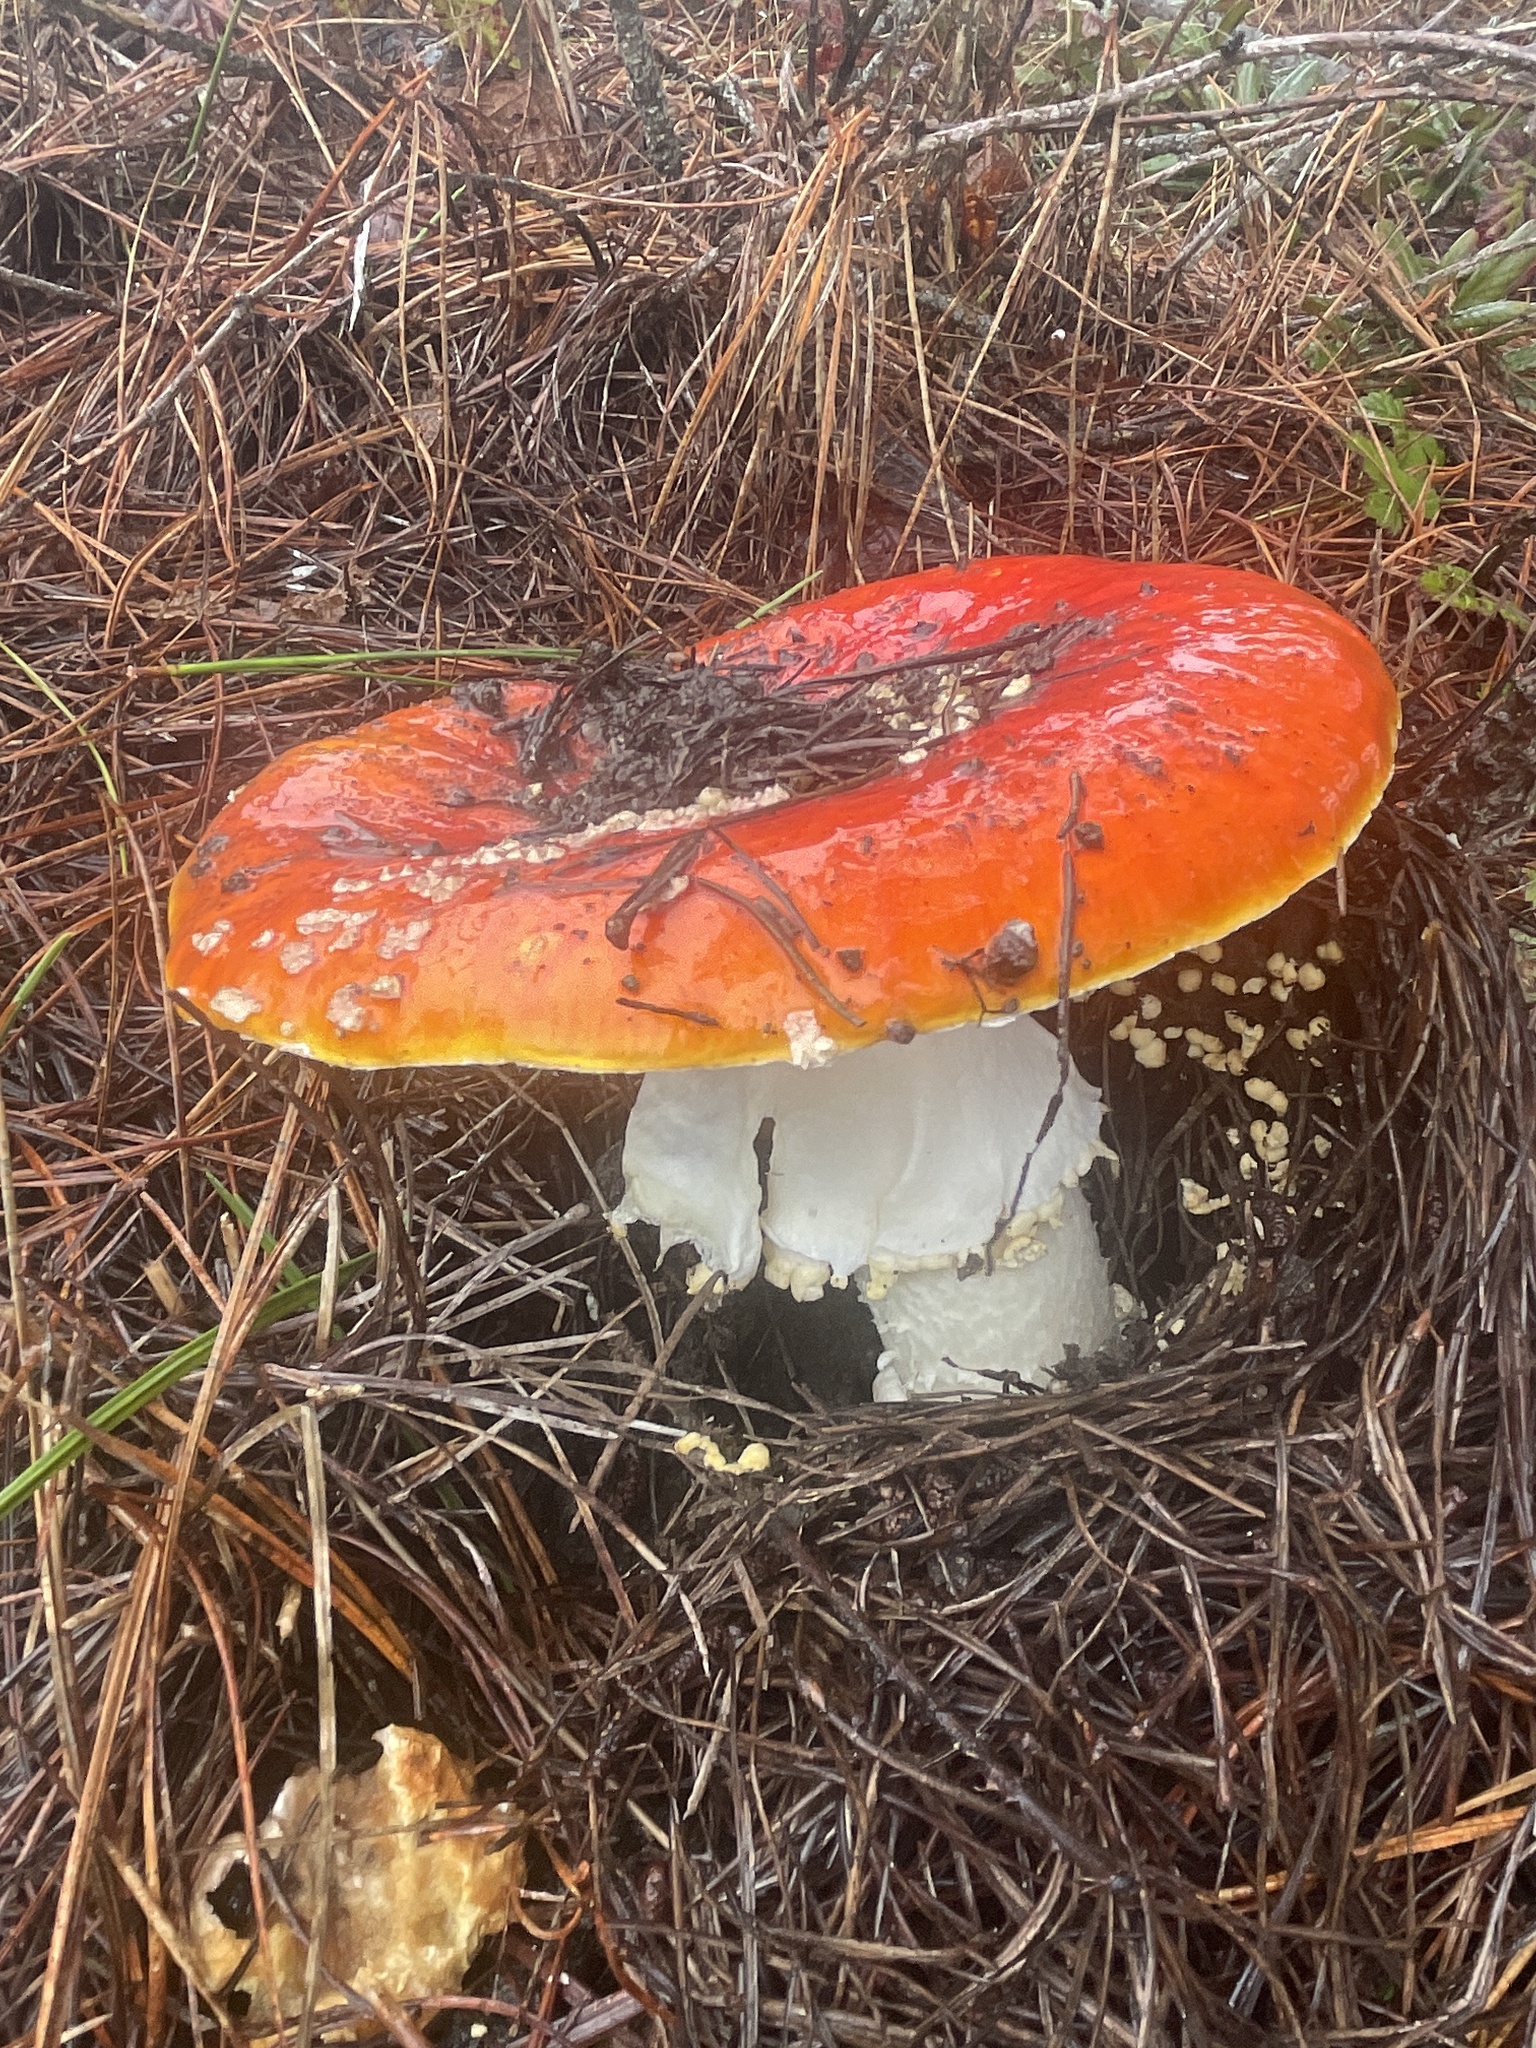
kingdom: Fungi
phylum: Basidiomycota
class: Agaricomycetes
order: Agaricales
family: Amanitaceae
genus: Amanita
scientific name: Amanita muscaria
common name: Fly agaric
